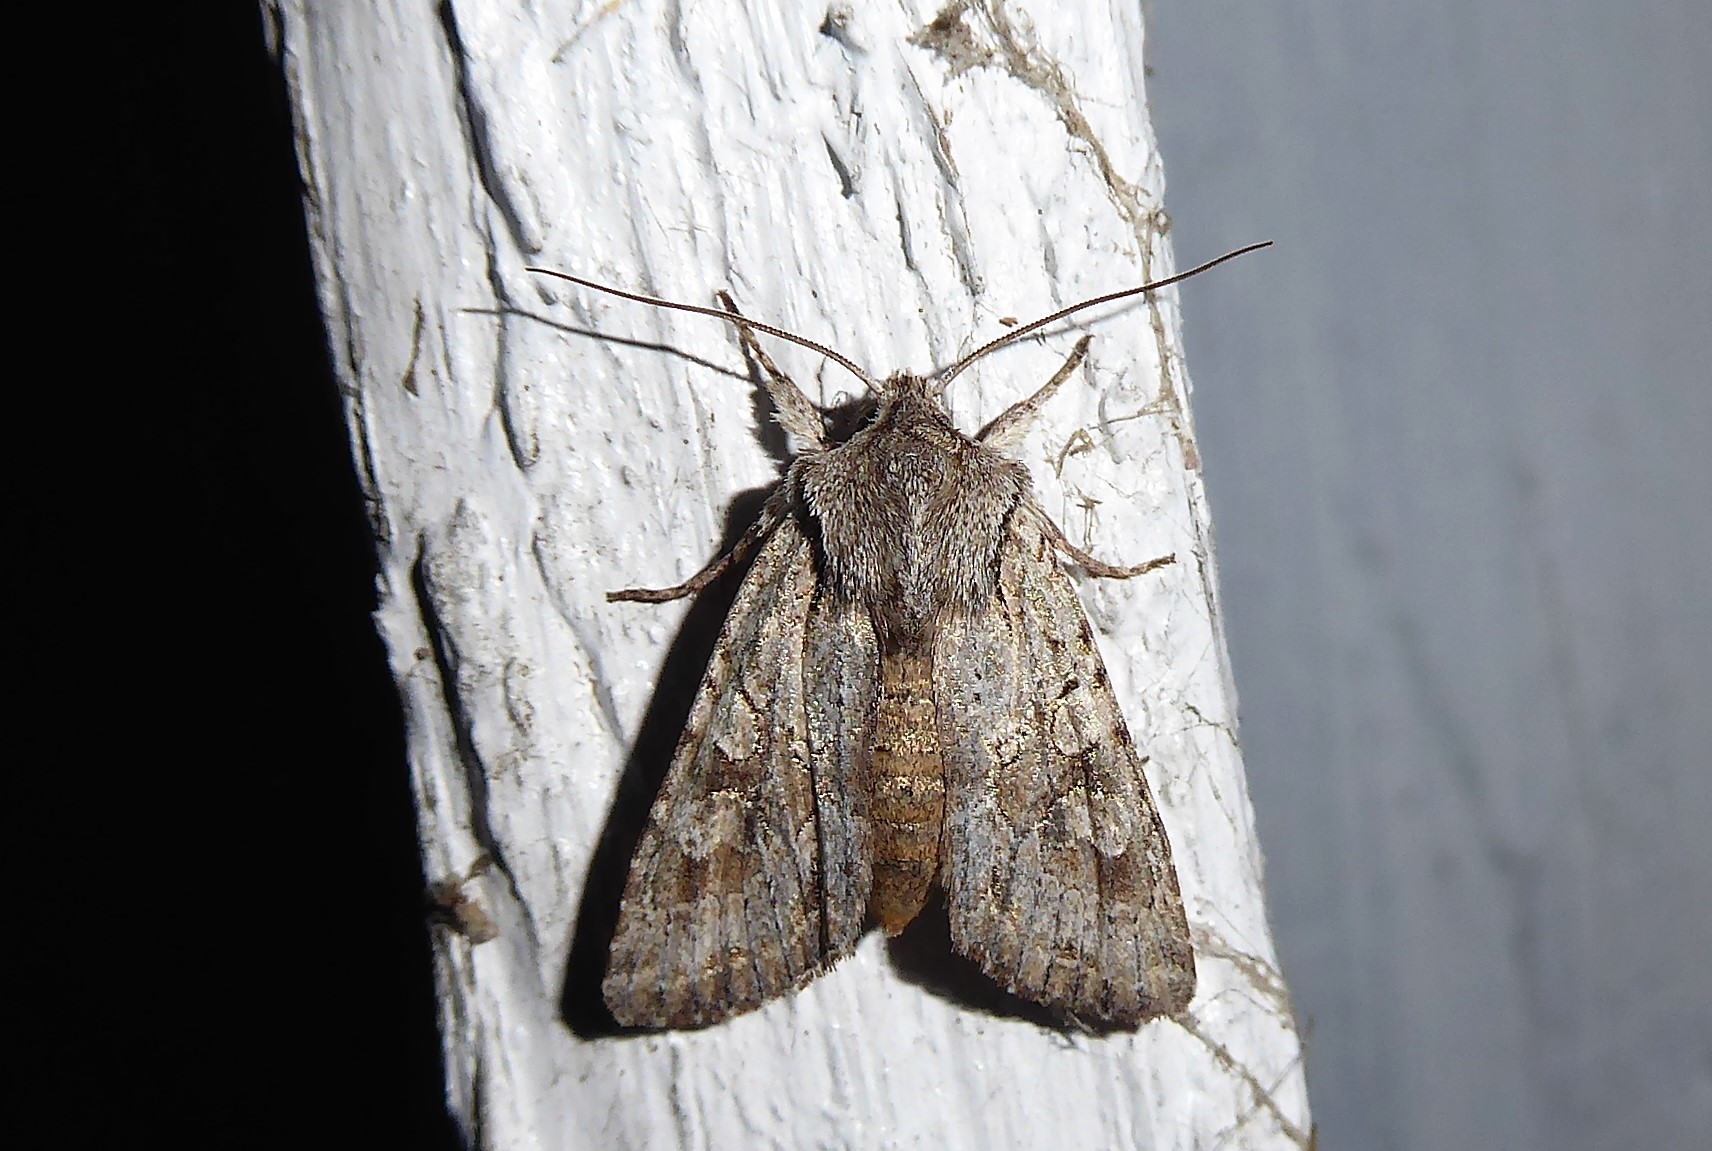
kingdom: Animalia
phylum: Arthropoda
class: Insecta
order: Lepidoptera
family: Noctuidae
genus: Ichneutica
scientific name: Ichneutica mutans
